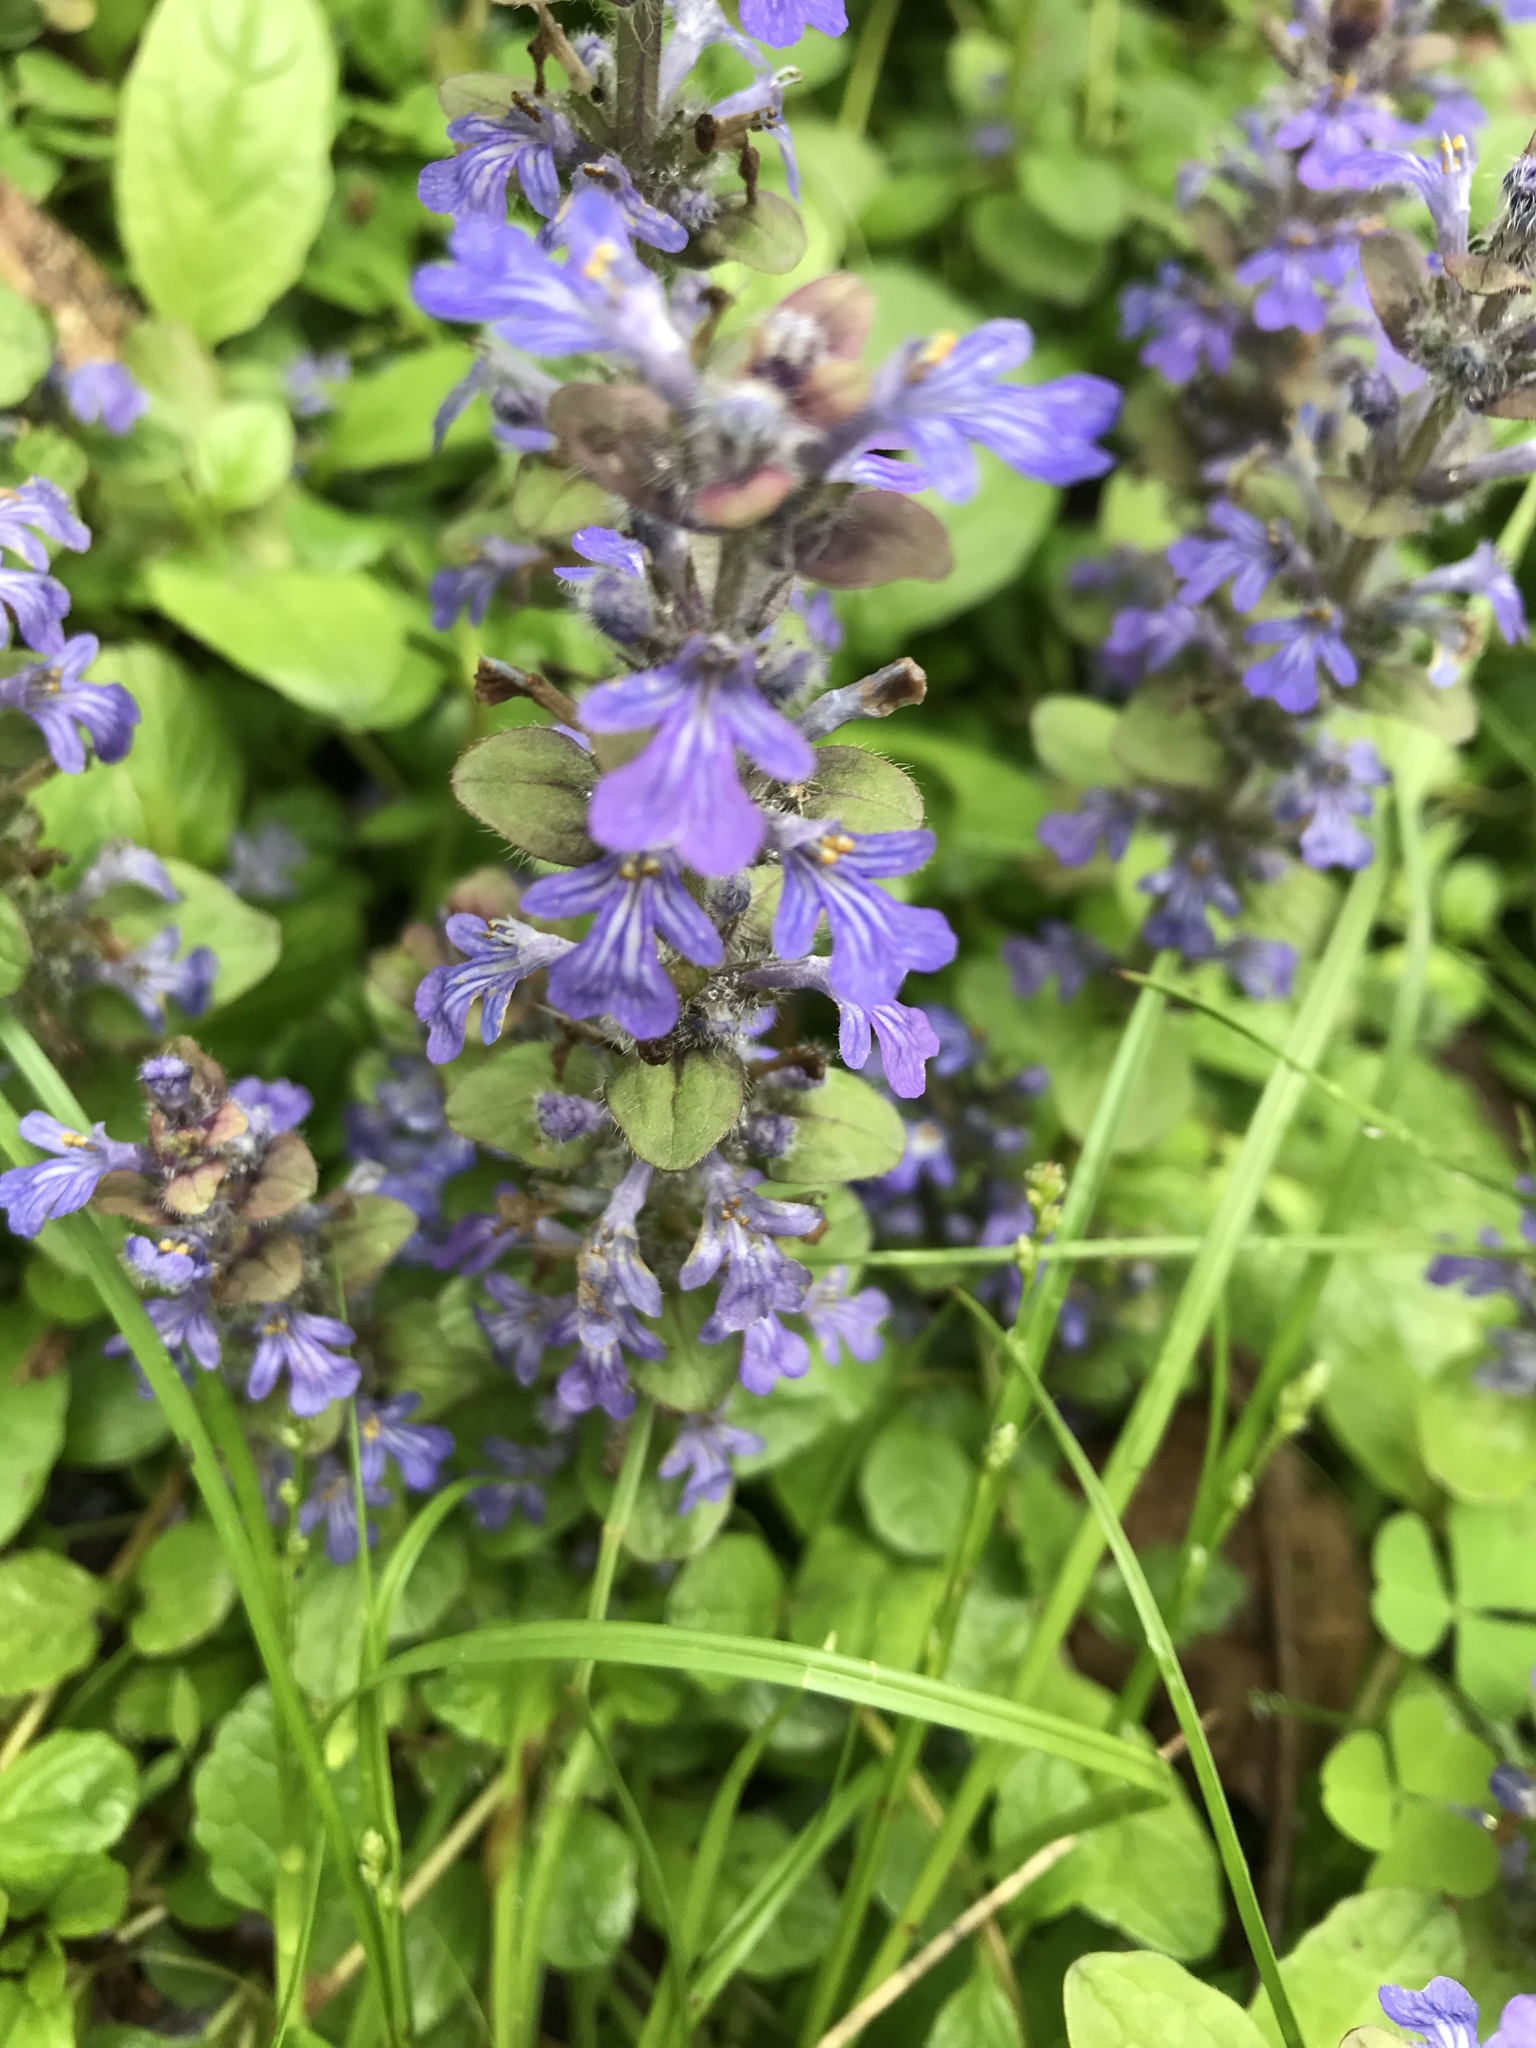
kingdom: Plantae
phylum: Tracheophyta
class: Magnoliopsida
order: Lamiales
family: Lamiaceae
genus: Ajuga
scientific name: Ajuga reptans
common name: Bugle
